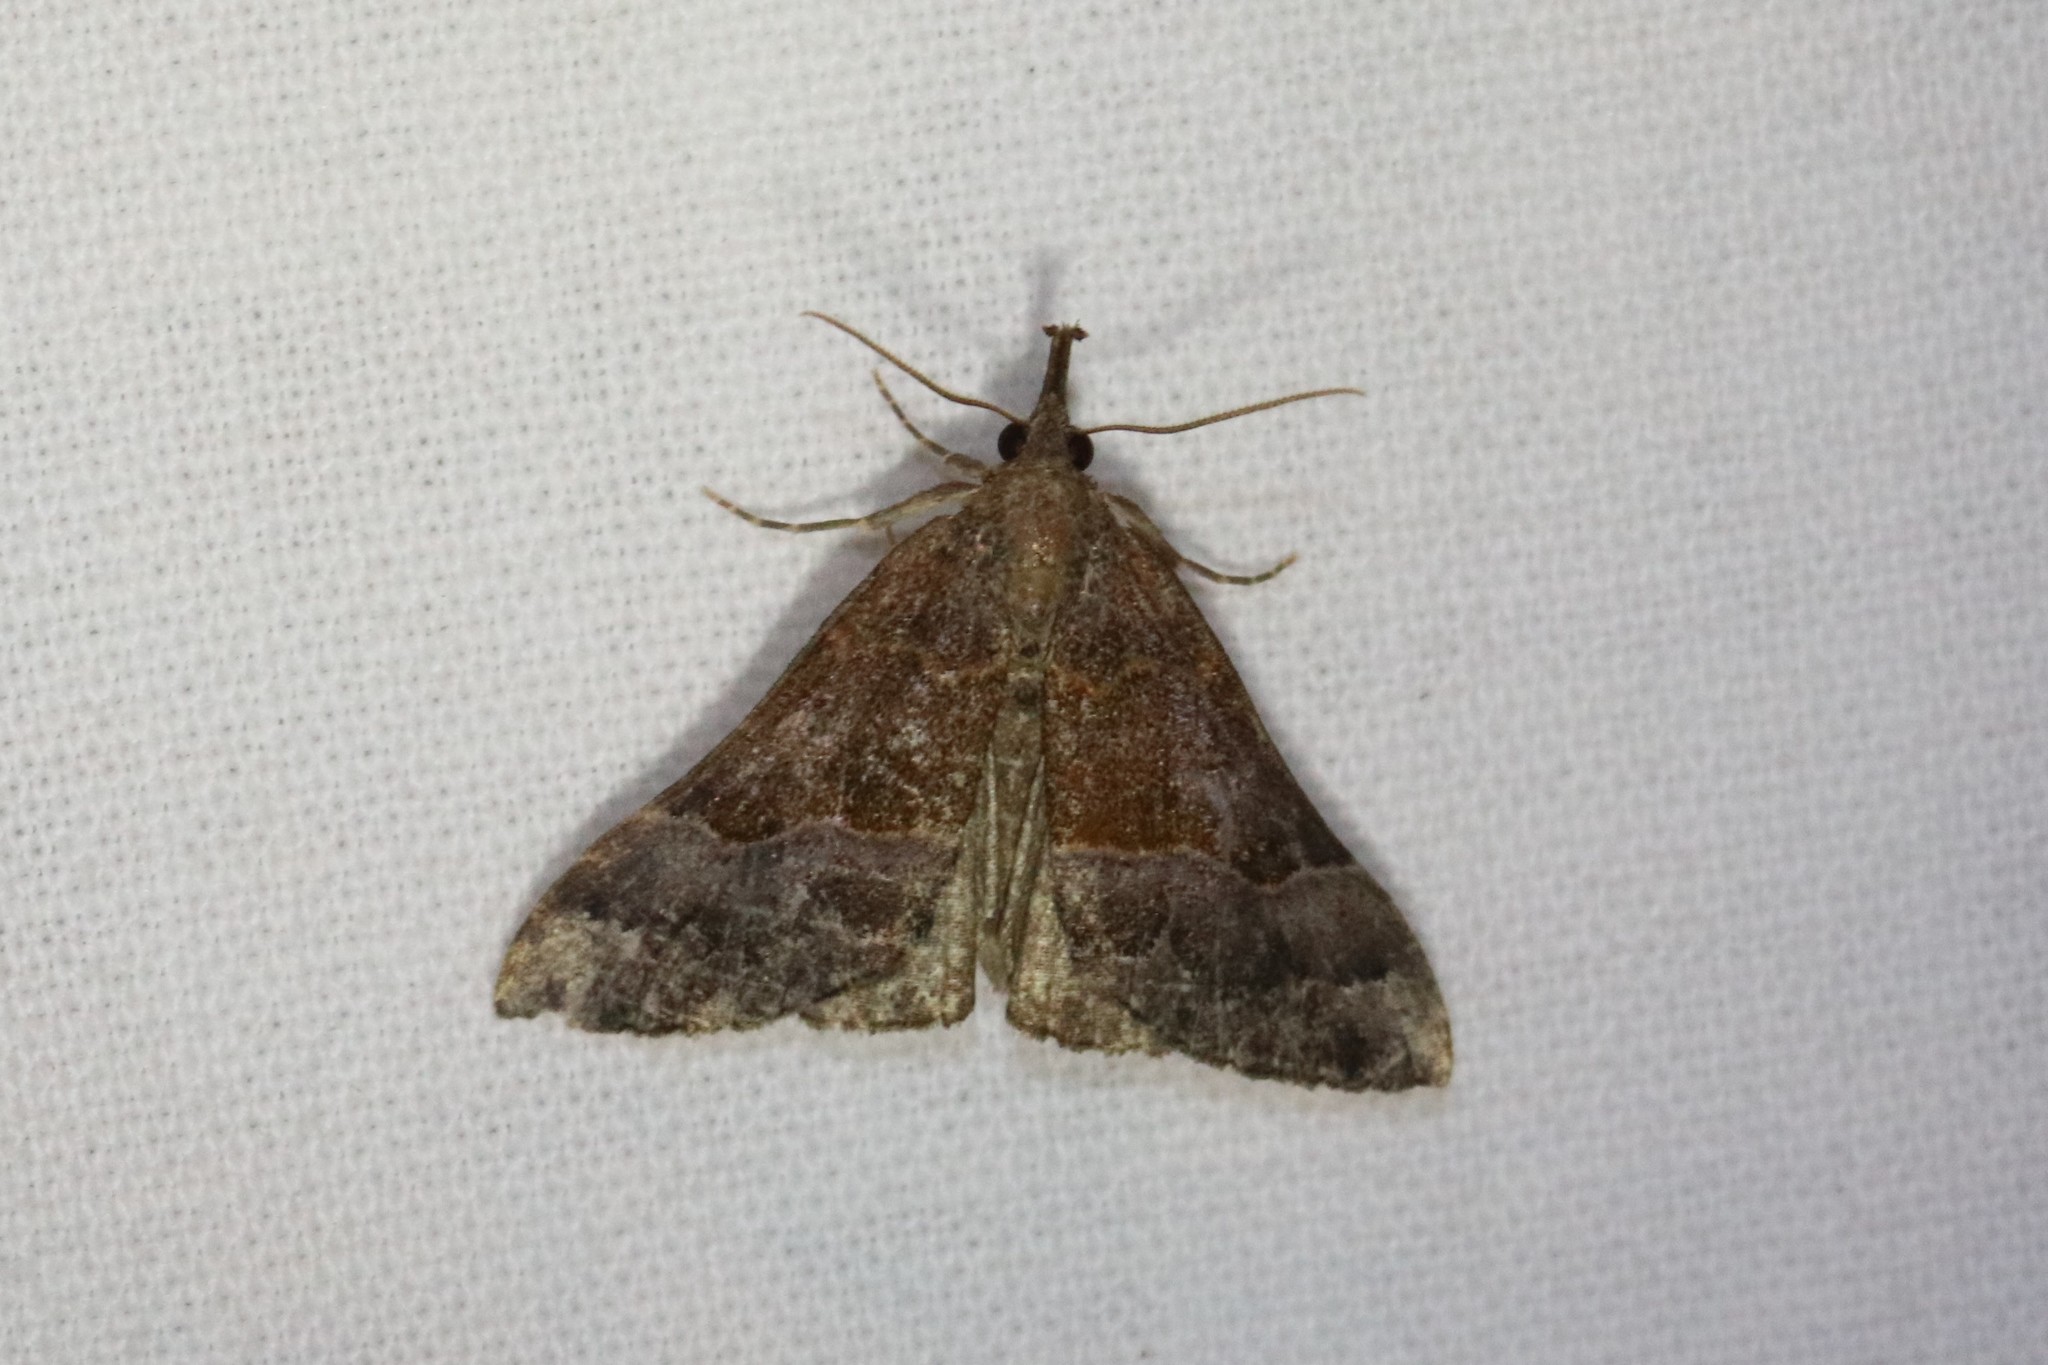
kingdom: Animalia
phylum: Arthropoda
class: Insecta
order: Lepidoptera
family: Erebidae
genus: Hypena
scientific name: Hypena eductalis
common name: Red-footed snout
